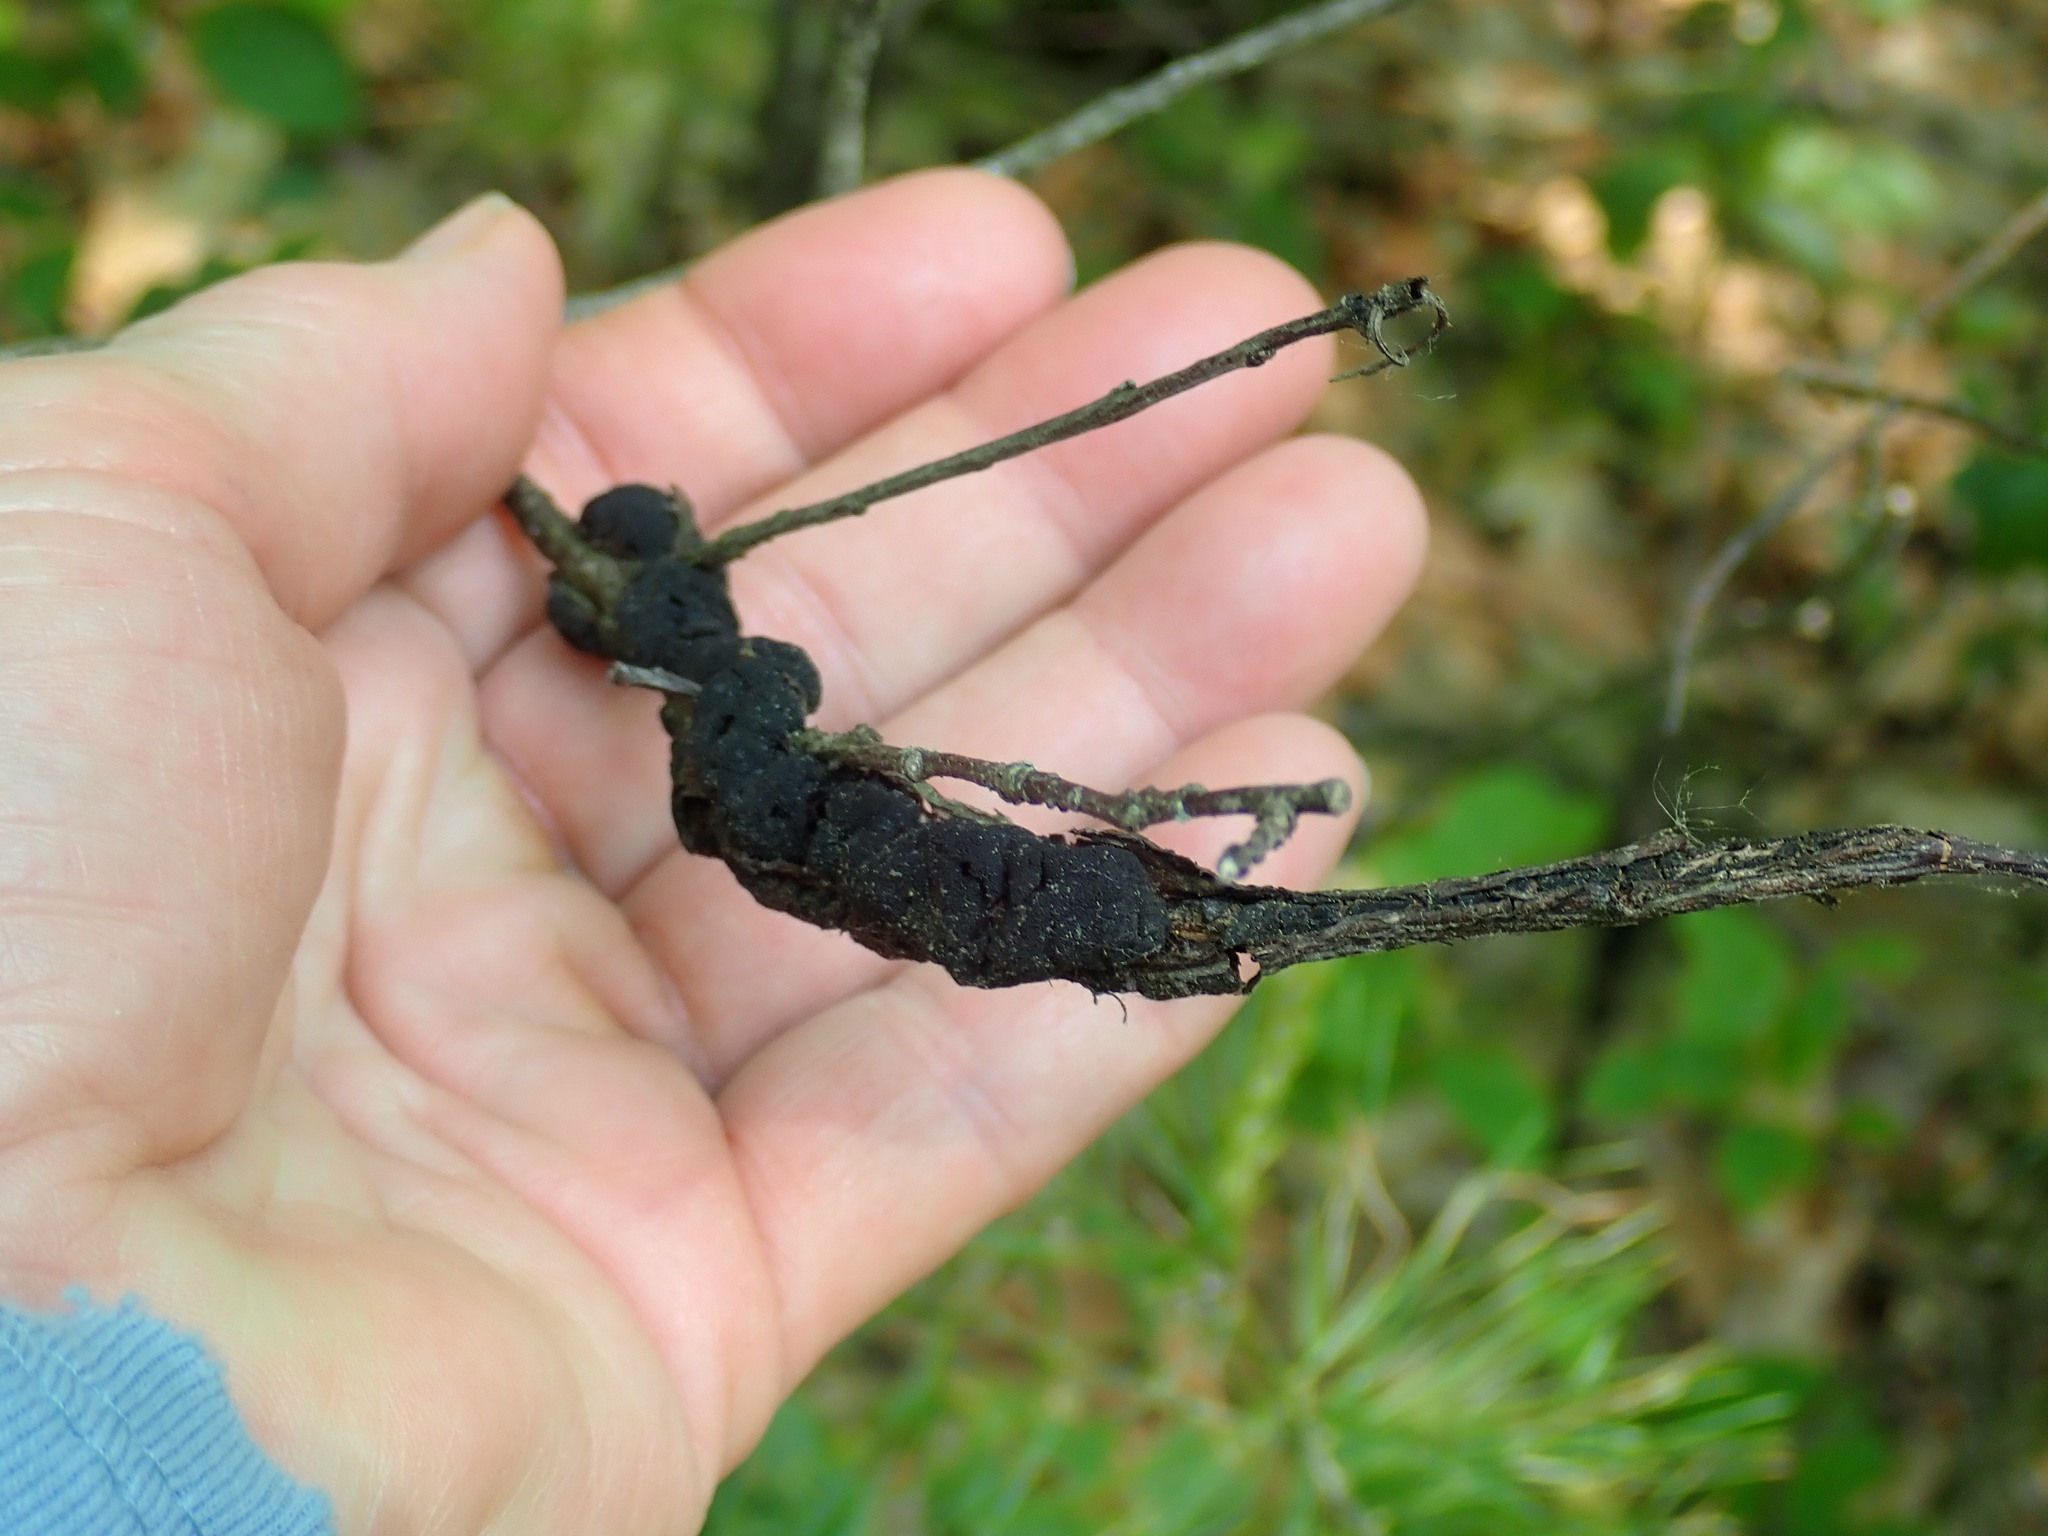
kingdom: Fungi
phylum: Ascomycota
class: Dothideomycetes
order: Venturiales
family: Venturiaceae
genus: Apiosporina
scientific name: Apiosporina morbosa
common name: Black knot
